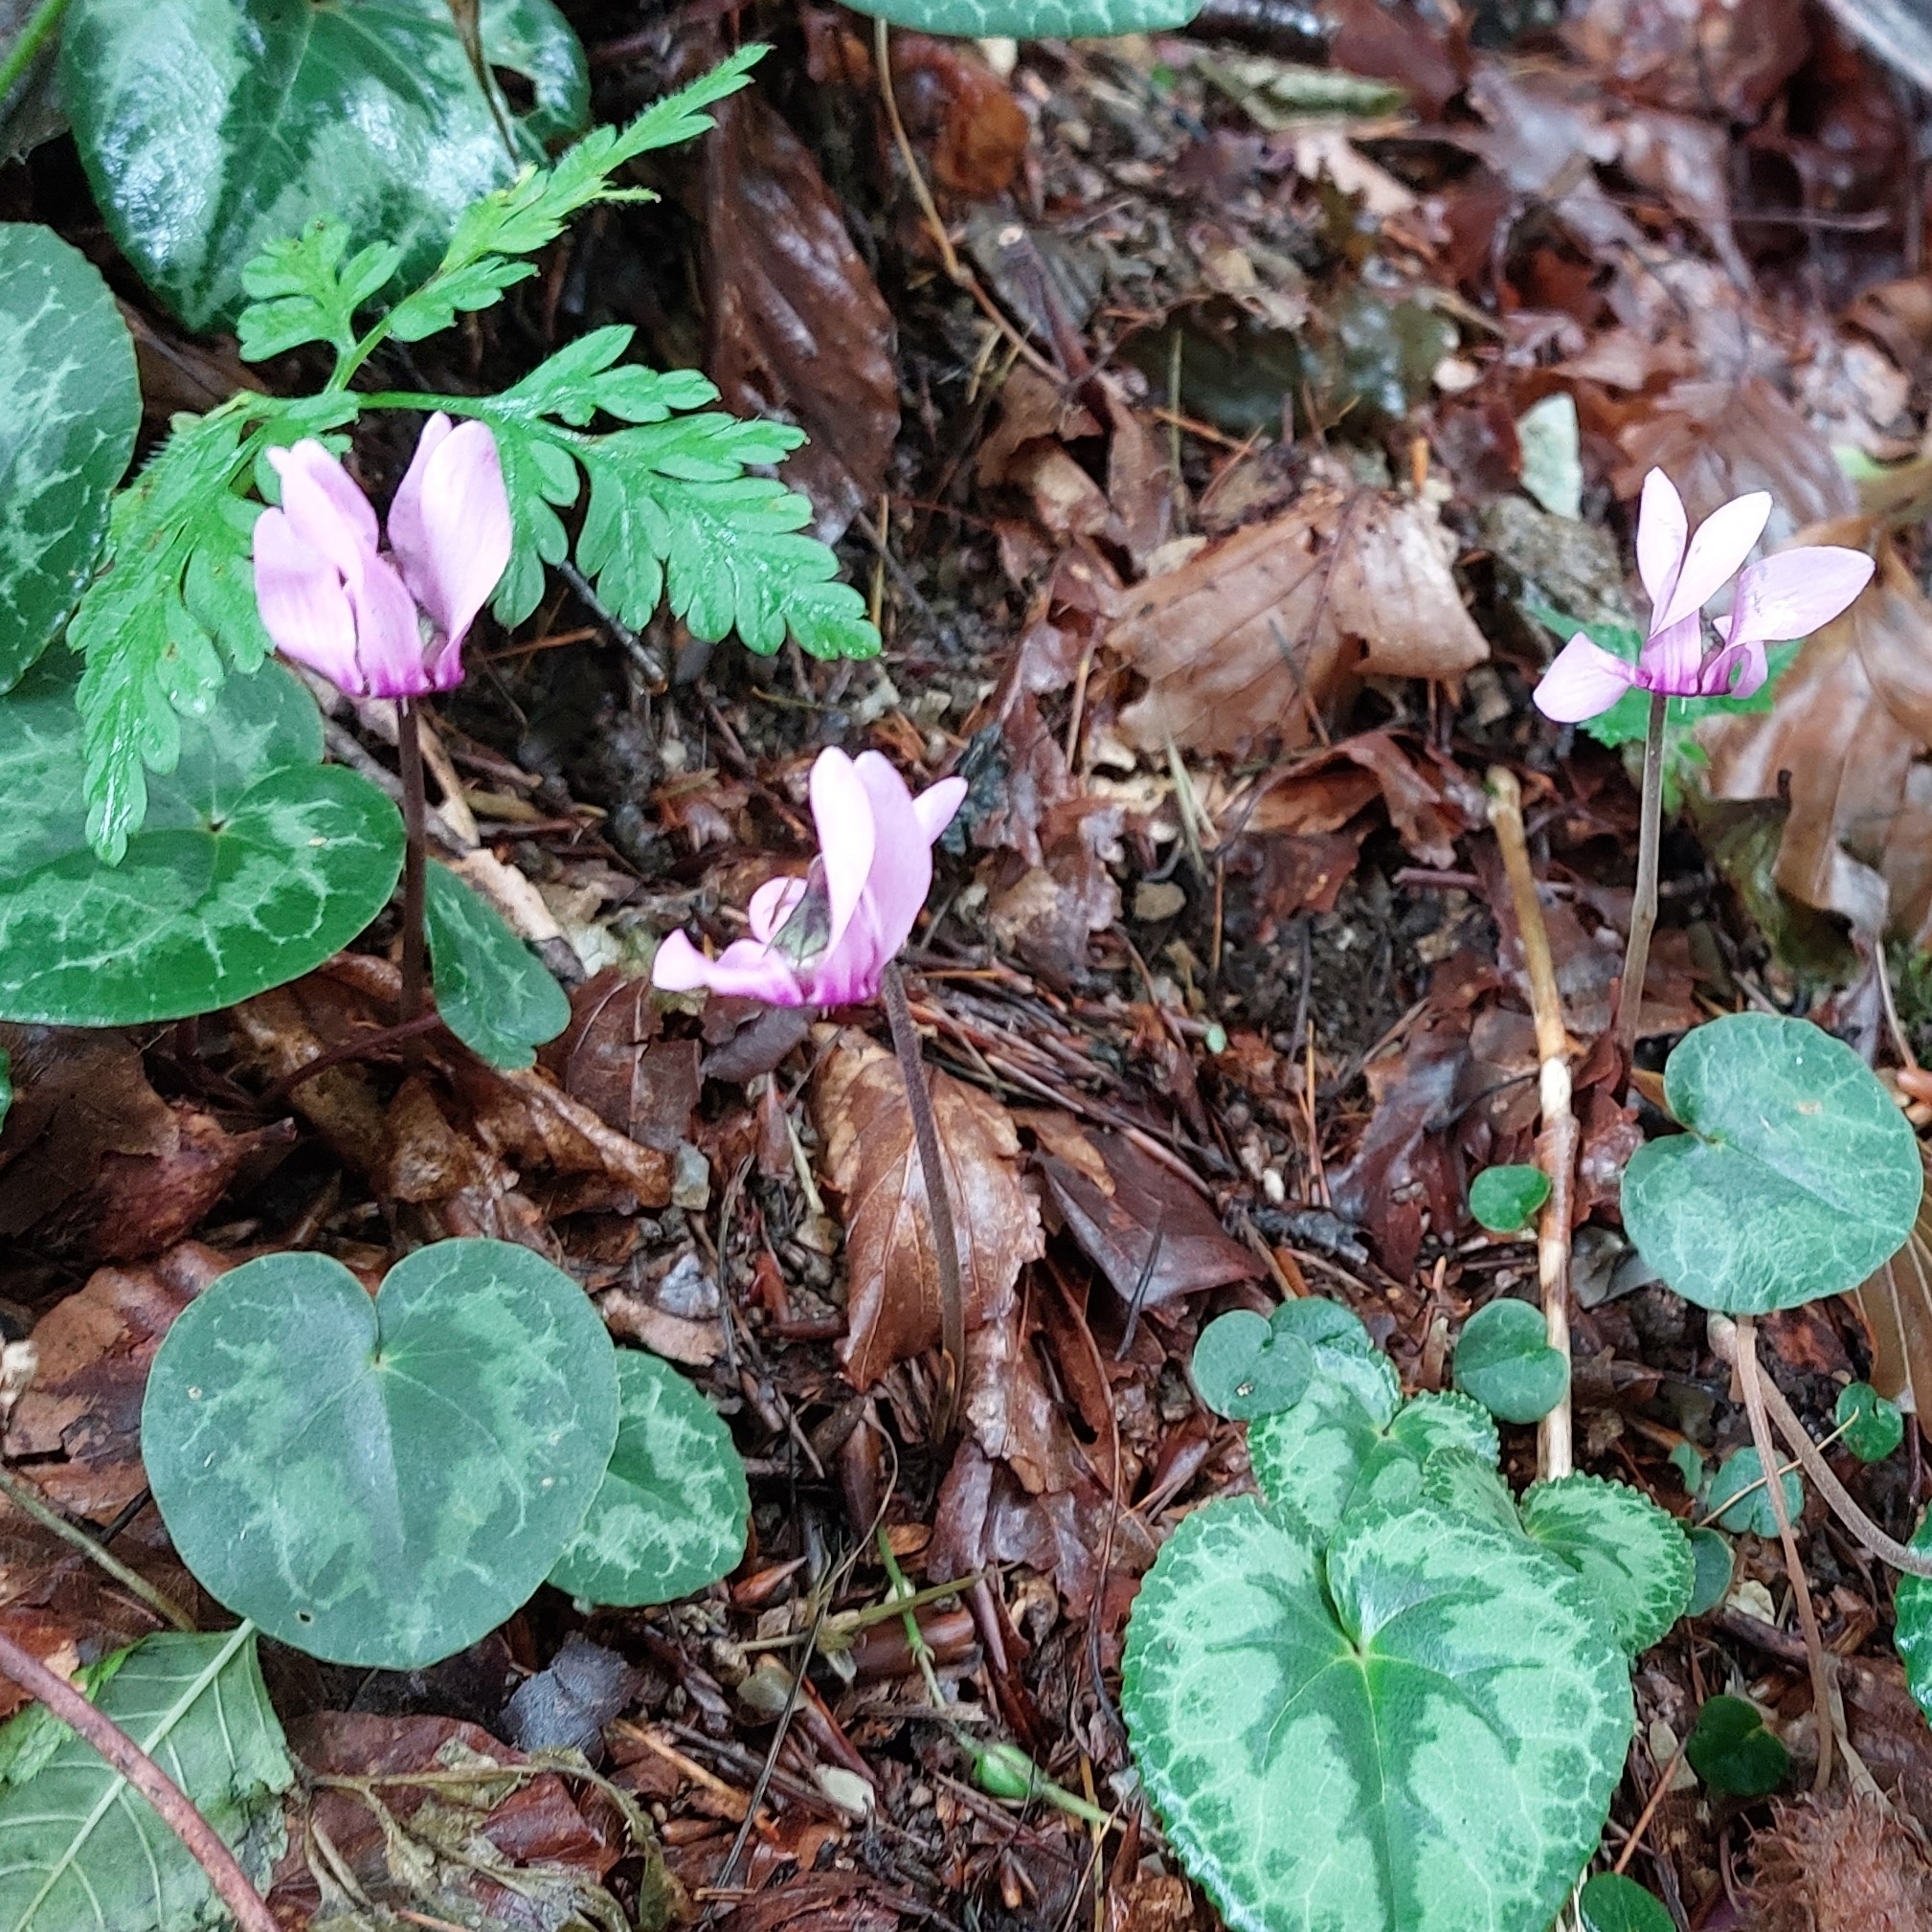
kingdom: Plantae
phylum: Tracheophyta
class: Magnoliopsida
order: Ericales
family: Primulaceae
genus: Cyclamen
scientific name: Cyclamen purpurascens
